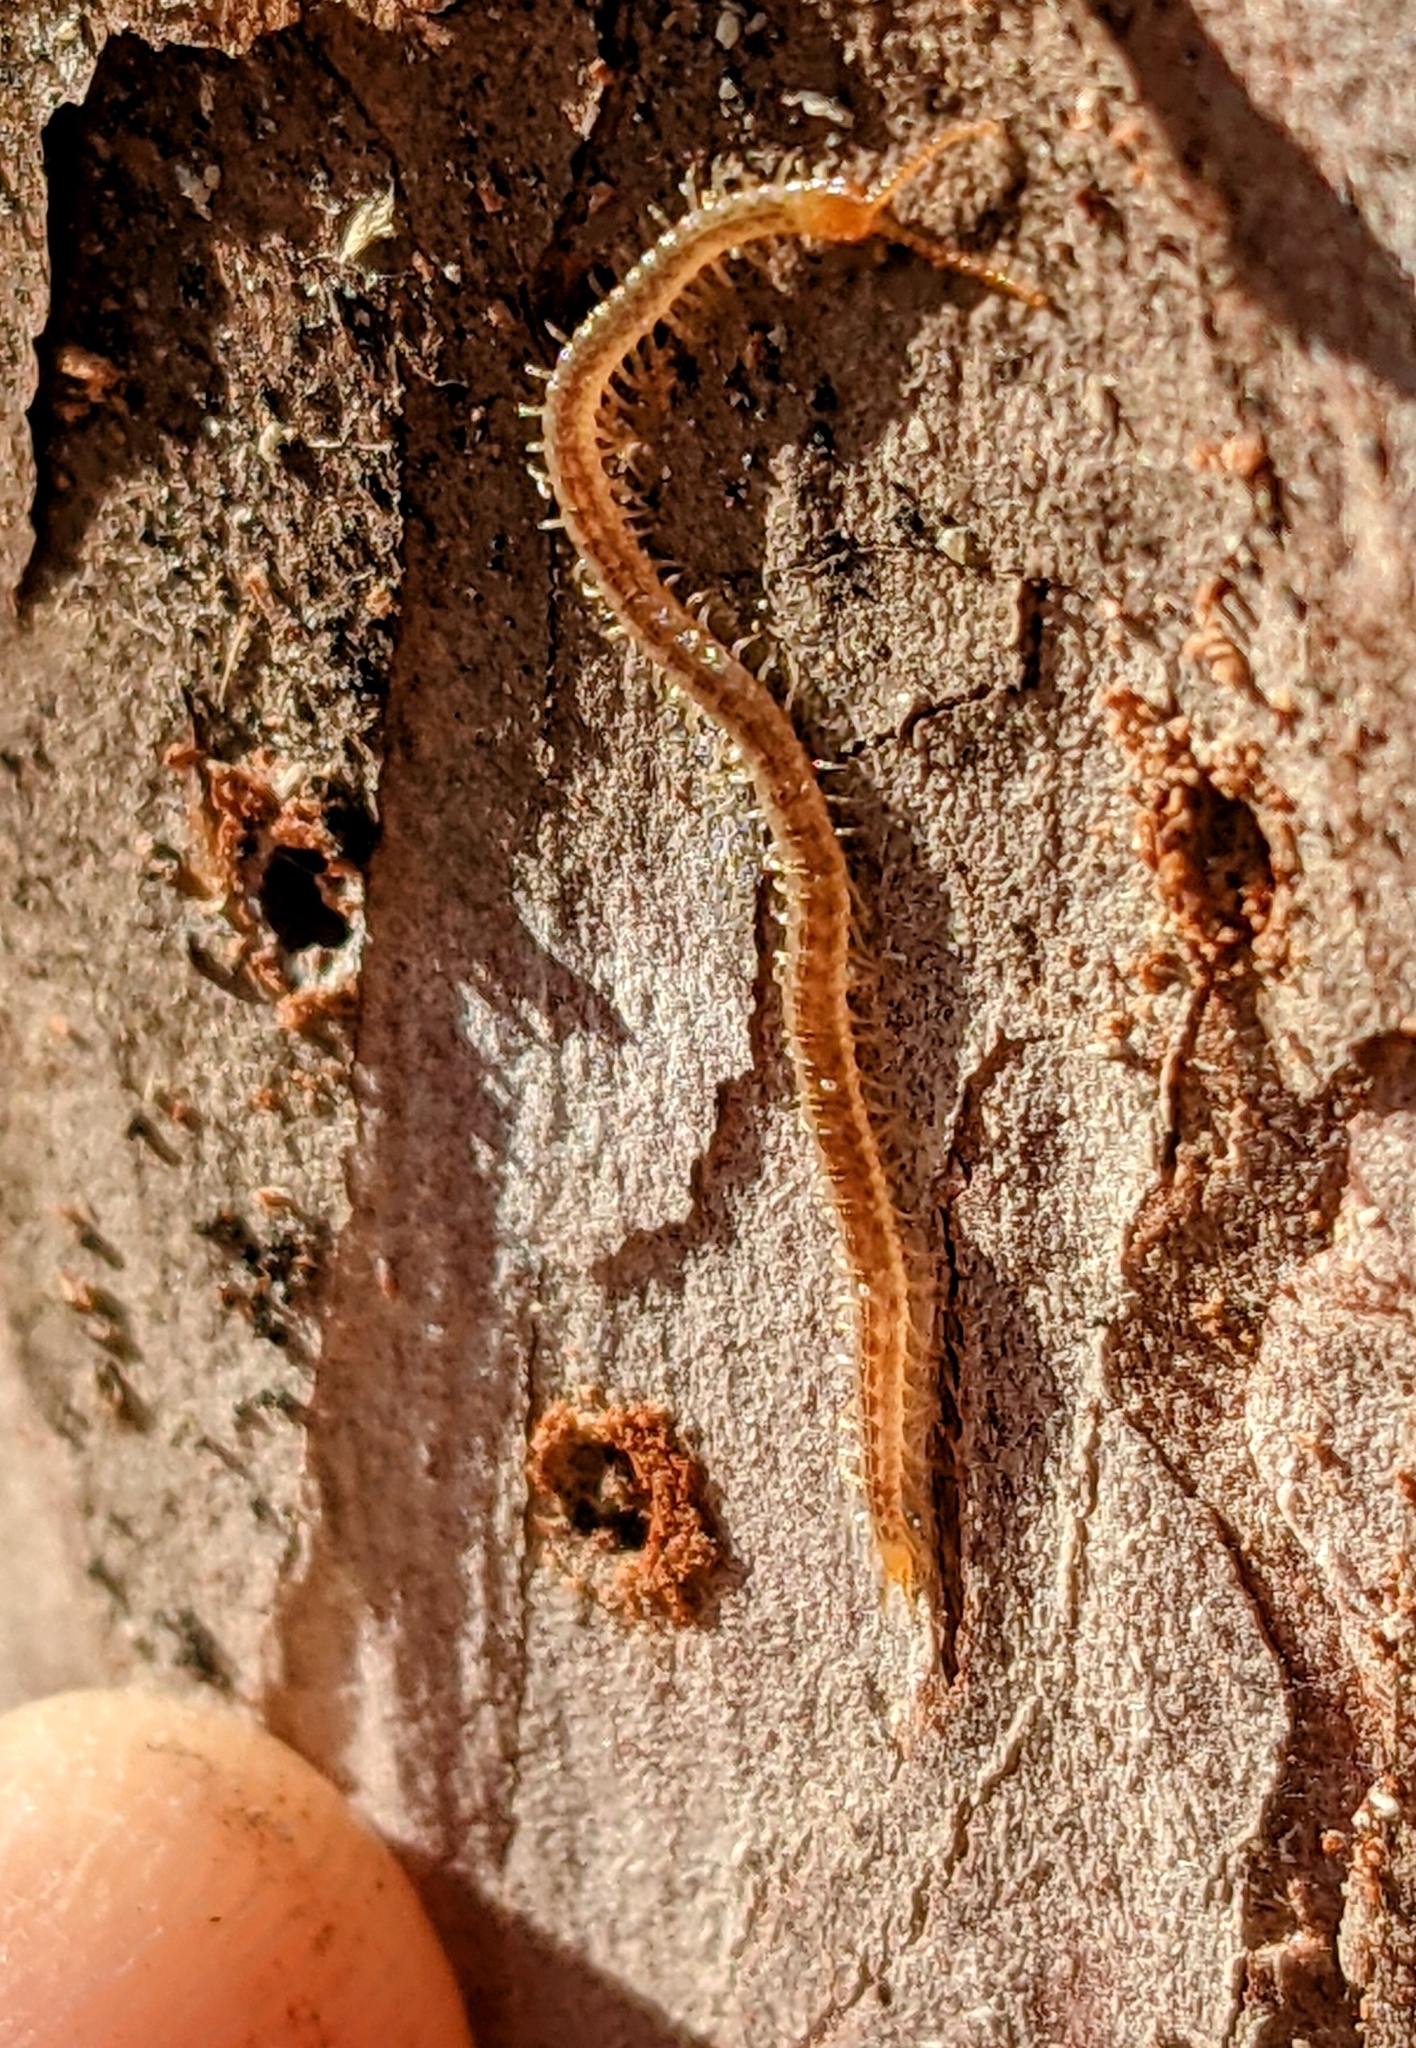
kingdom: Animalia
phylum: Arthropoda
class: Chilopoda
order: Geophilomorpha
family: Geophilidae
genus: Geophilus
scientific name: Geophilus vittatus
